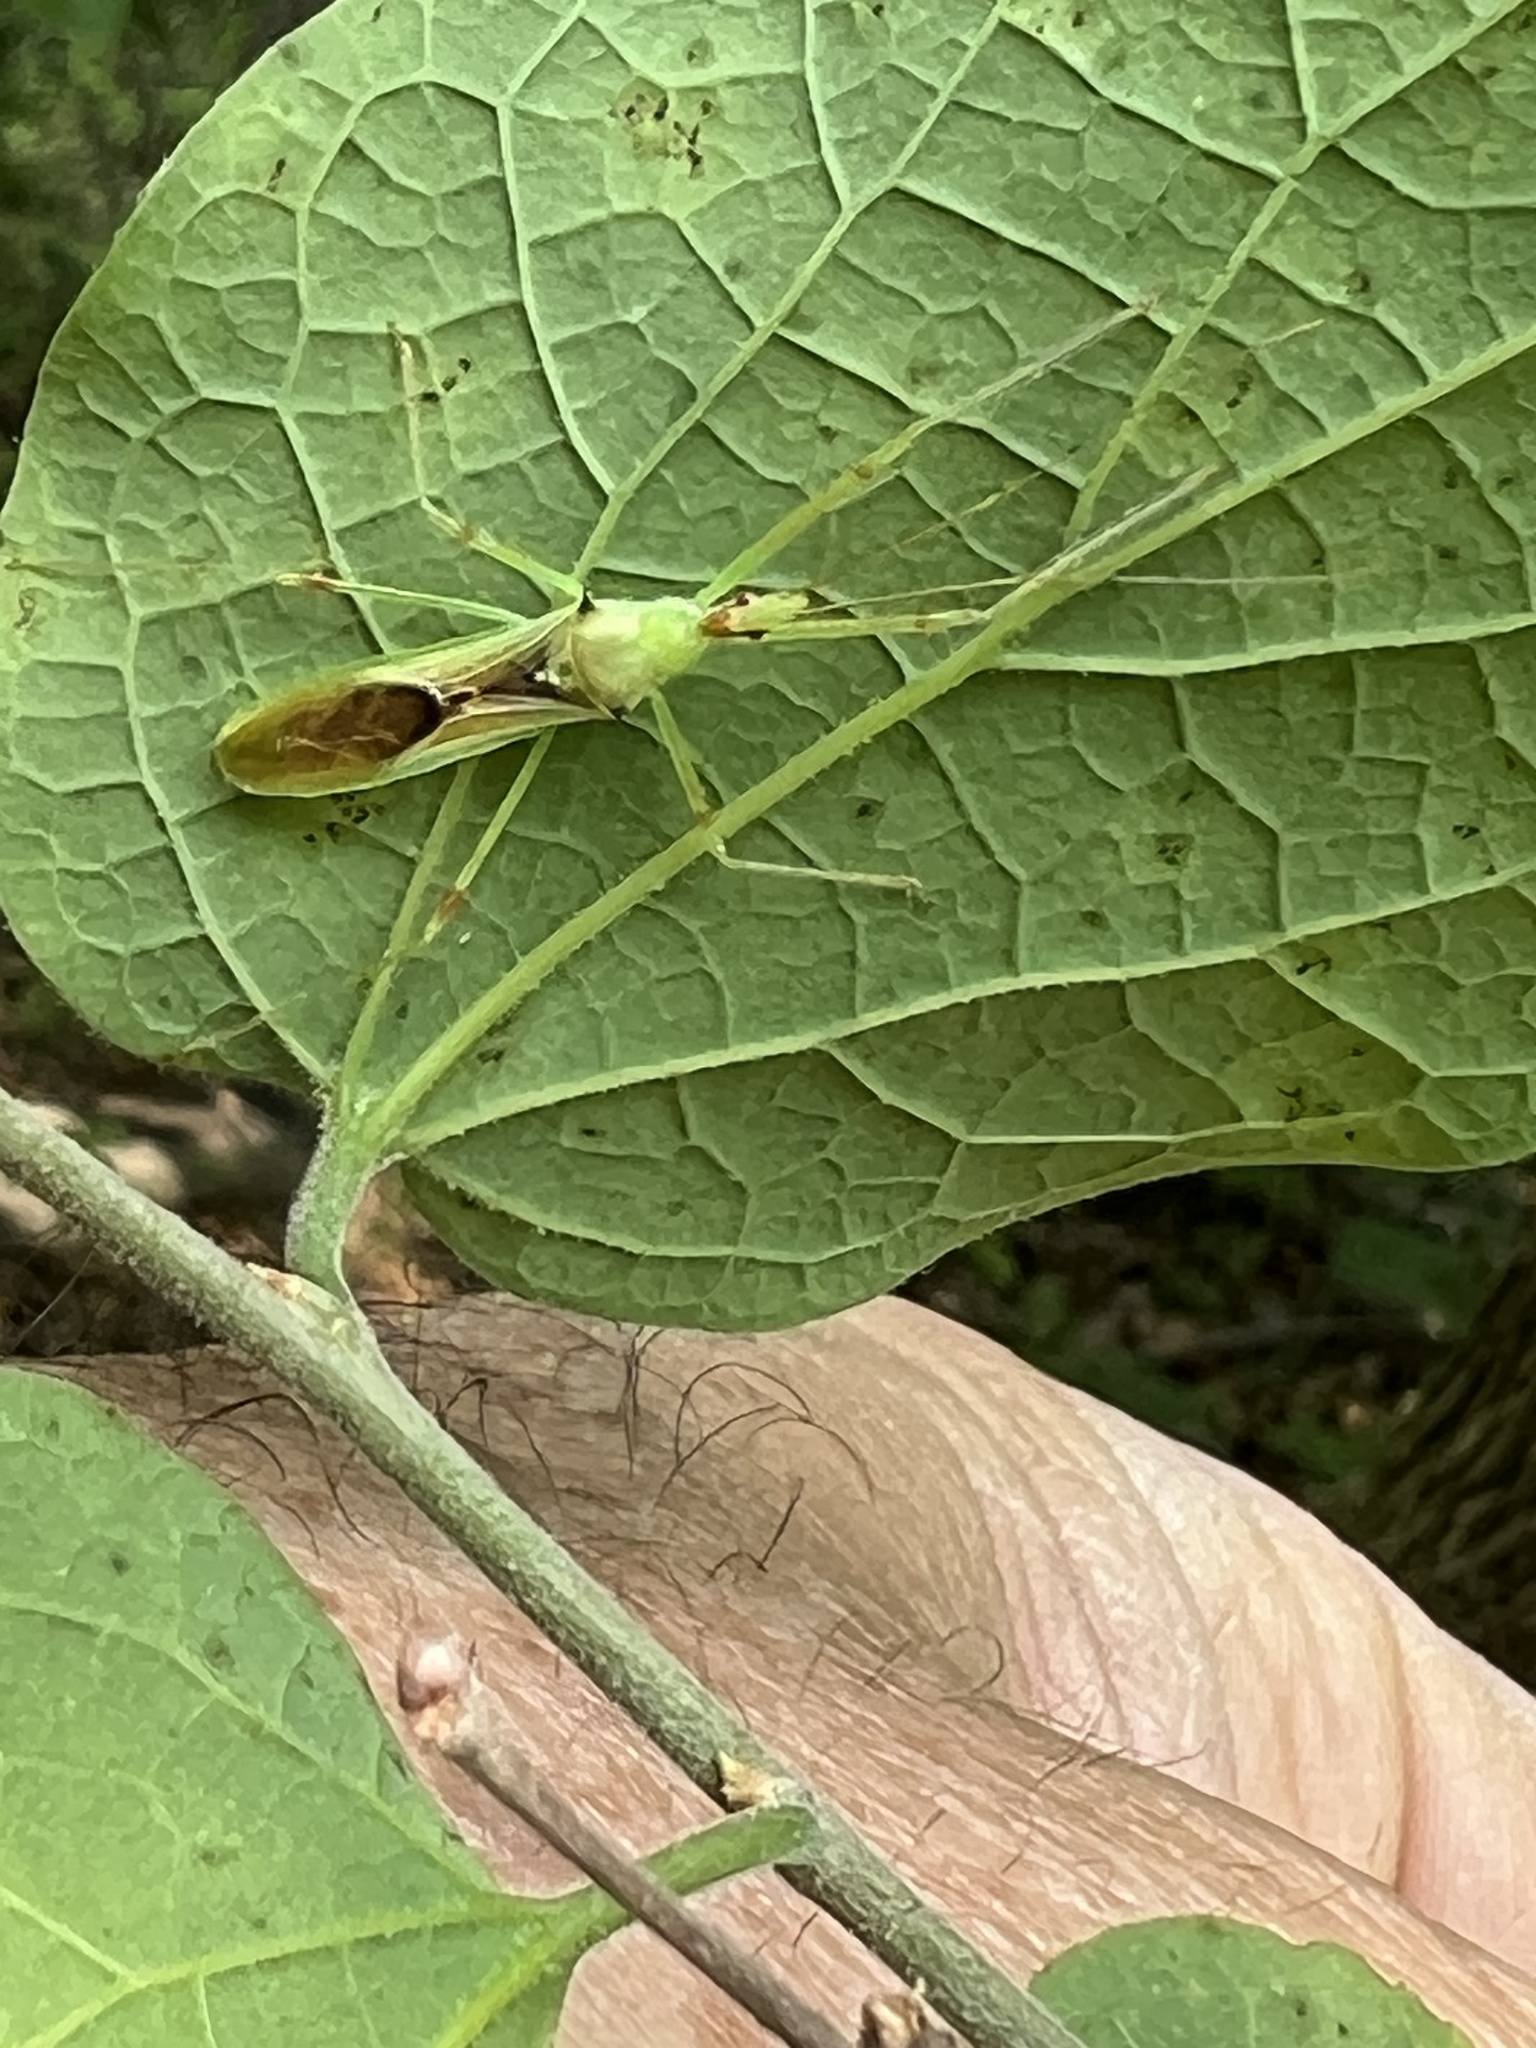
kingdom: Animalia
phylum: Arthropoda
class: Insecta
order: Hemiptera
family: Reduviidae
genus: Zelus
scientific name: Zelus luridus
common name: Pale green assassin bug
